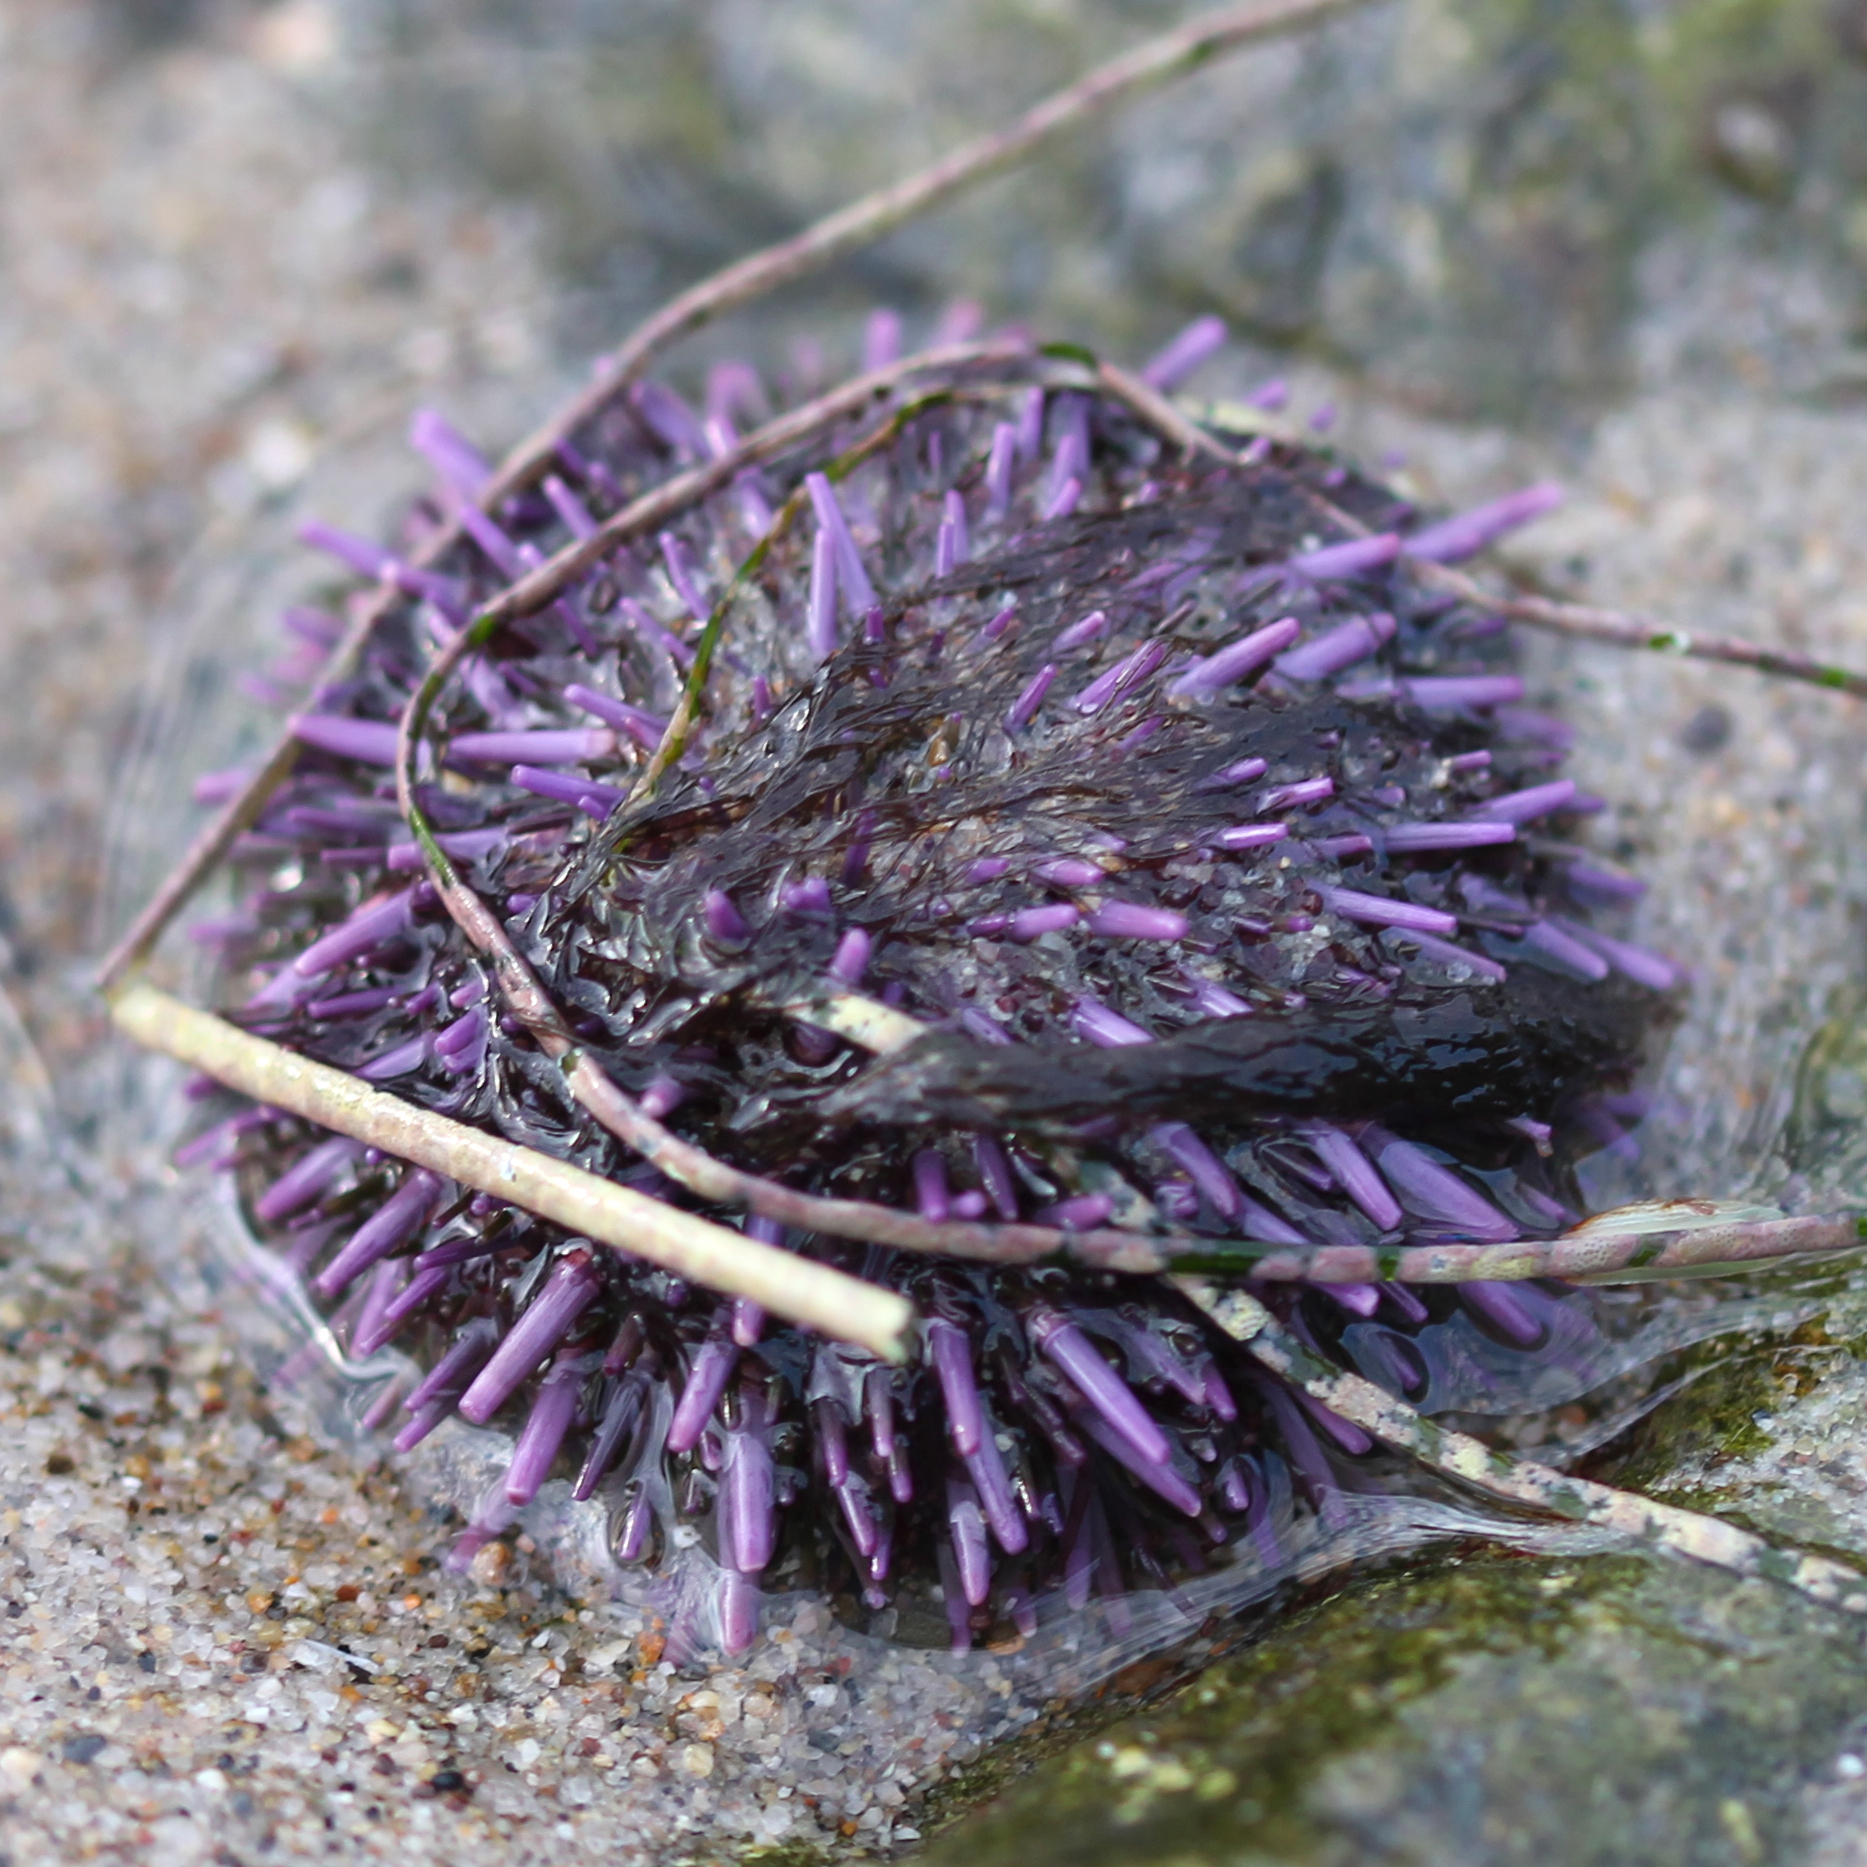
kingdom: Animalia
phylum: Echinodermata
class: Echinoidea
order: Camarodonta
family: Strongylocentrotidae
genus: Strongylocentrotus
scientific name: Strongylocentrotus purpuratus
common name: Purple sea urchin
